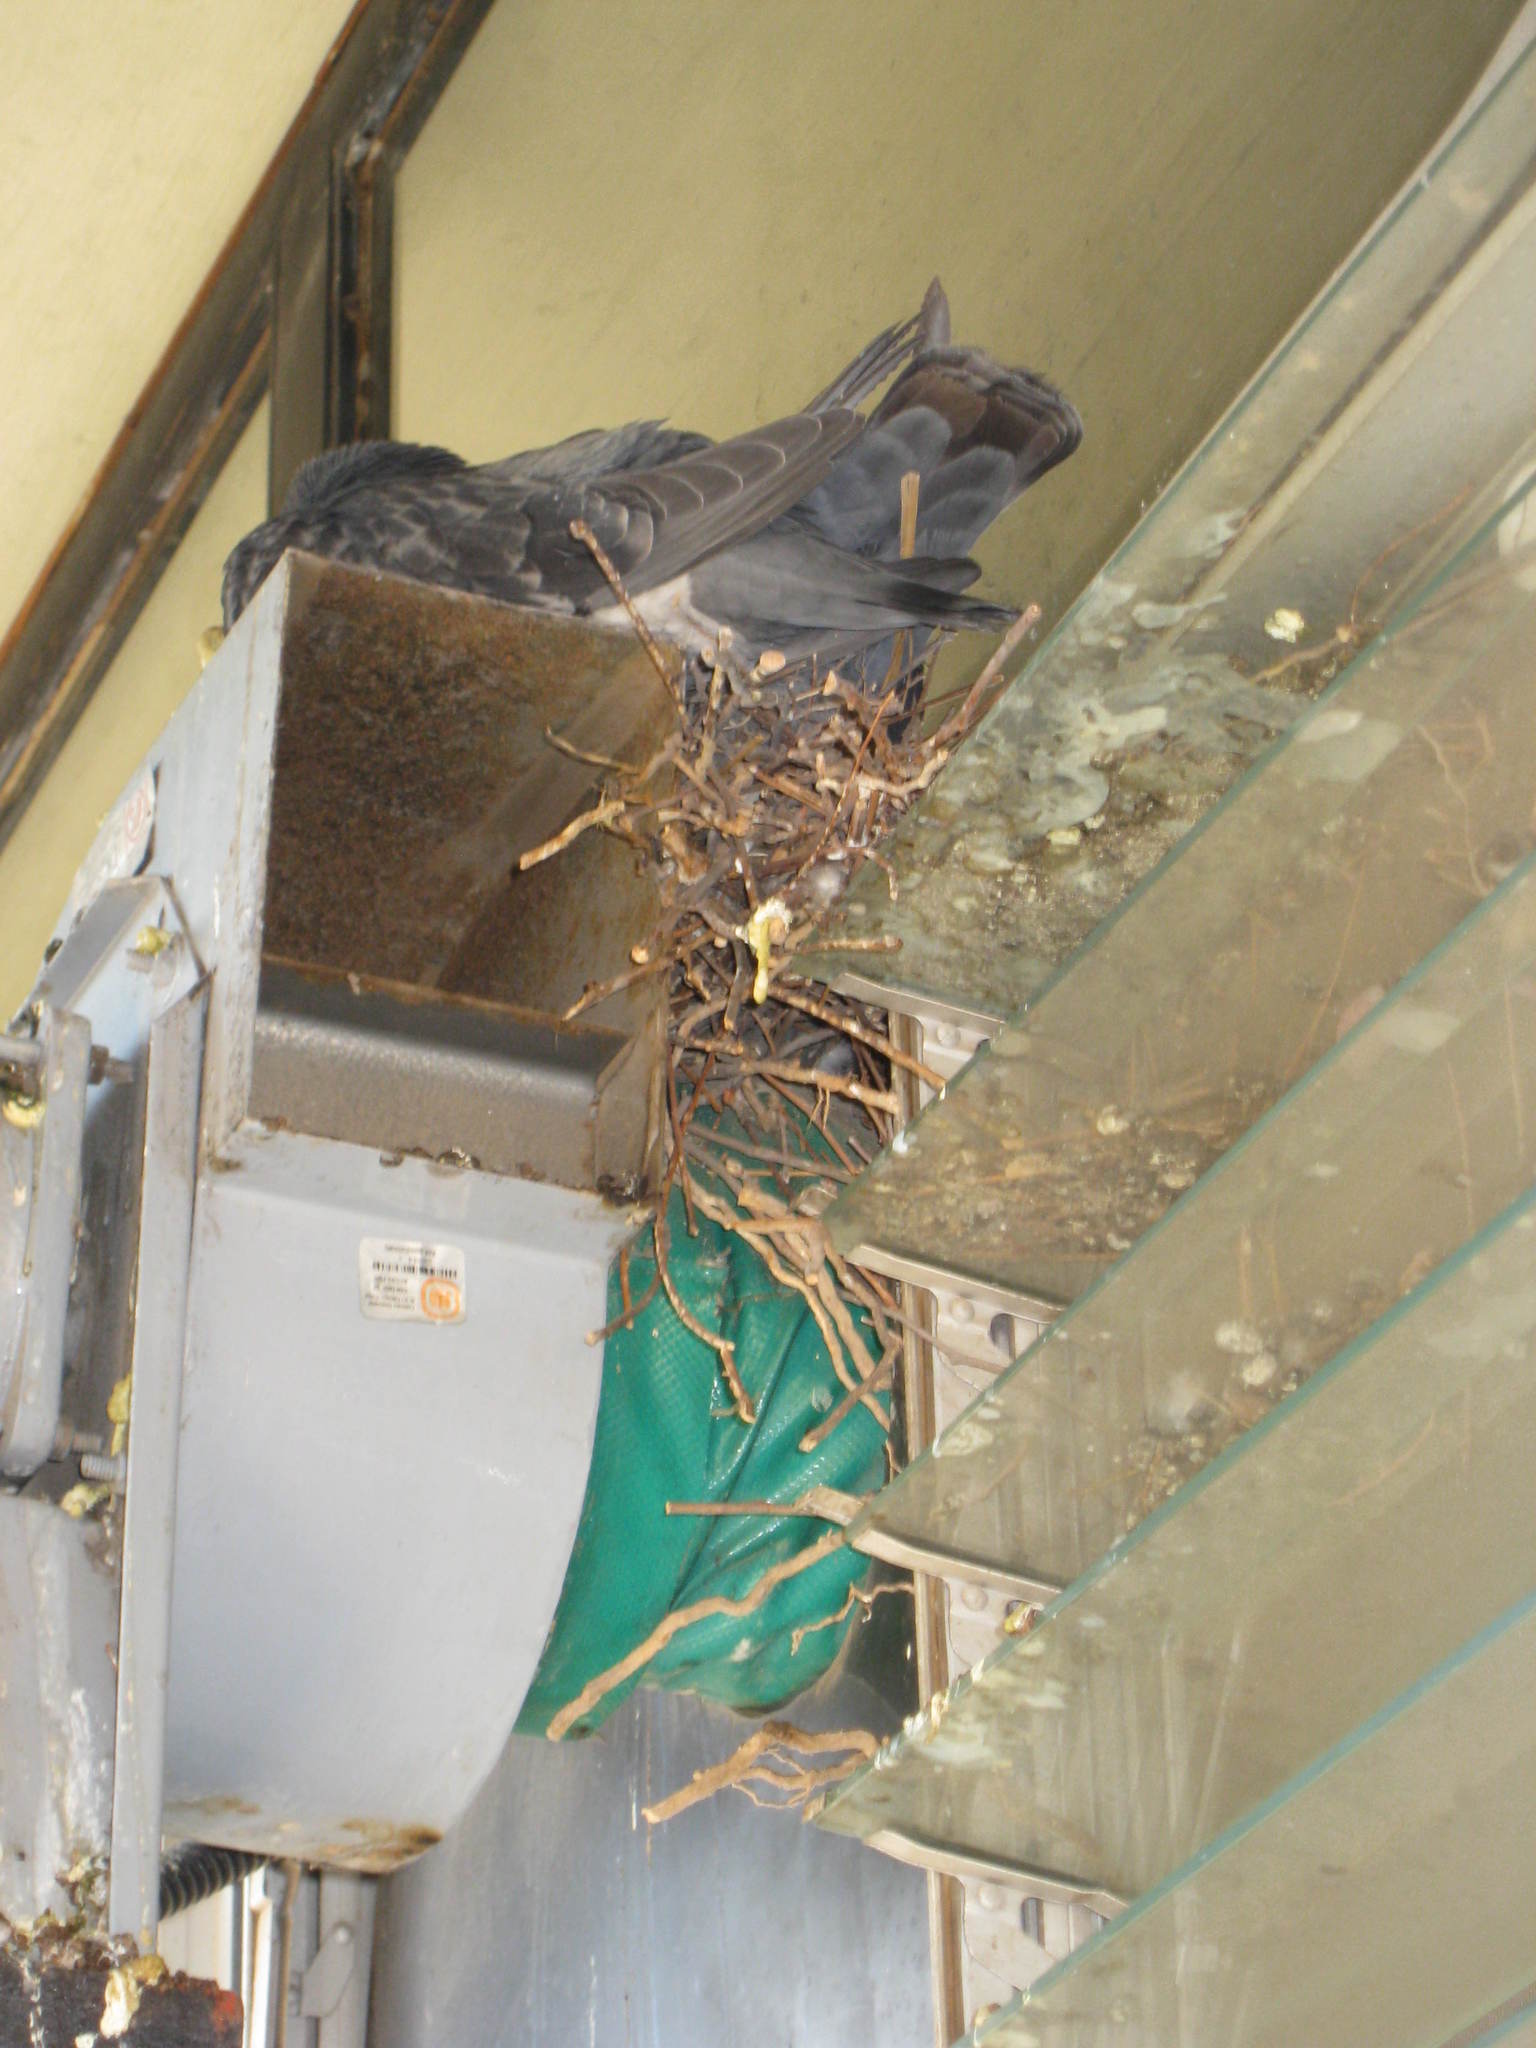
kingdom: Animalia
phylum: Chordata
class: Aves
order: Columbiformes
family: Columbidae
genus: Columba
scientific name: Columba livia
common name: Rock pigeon
